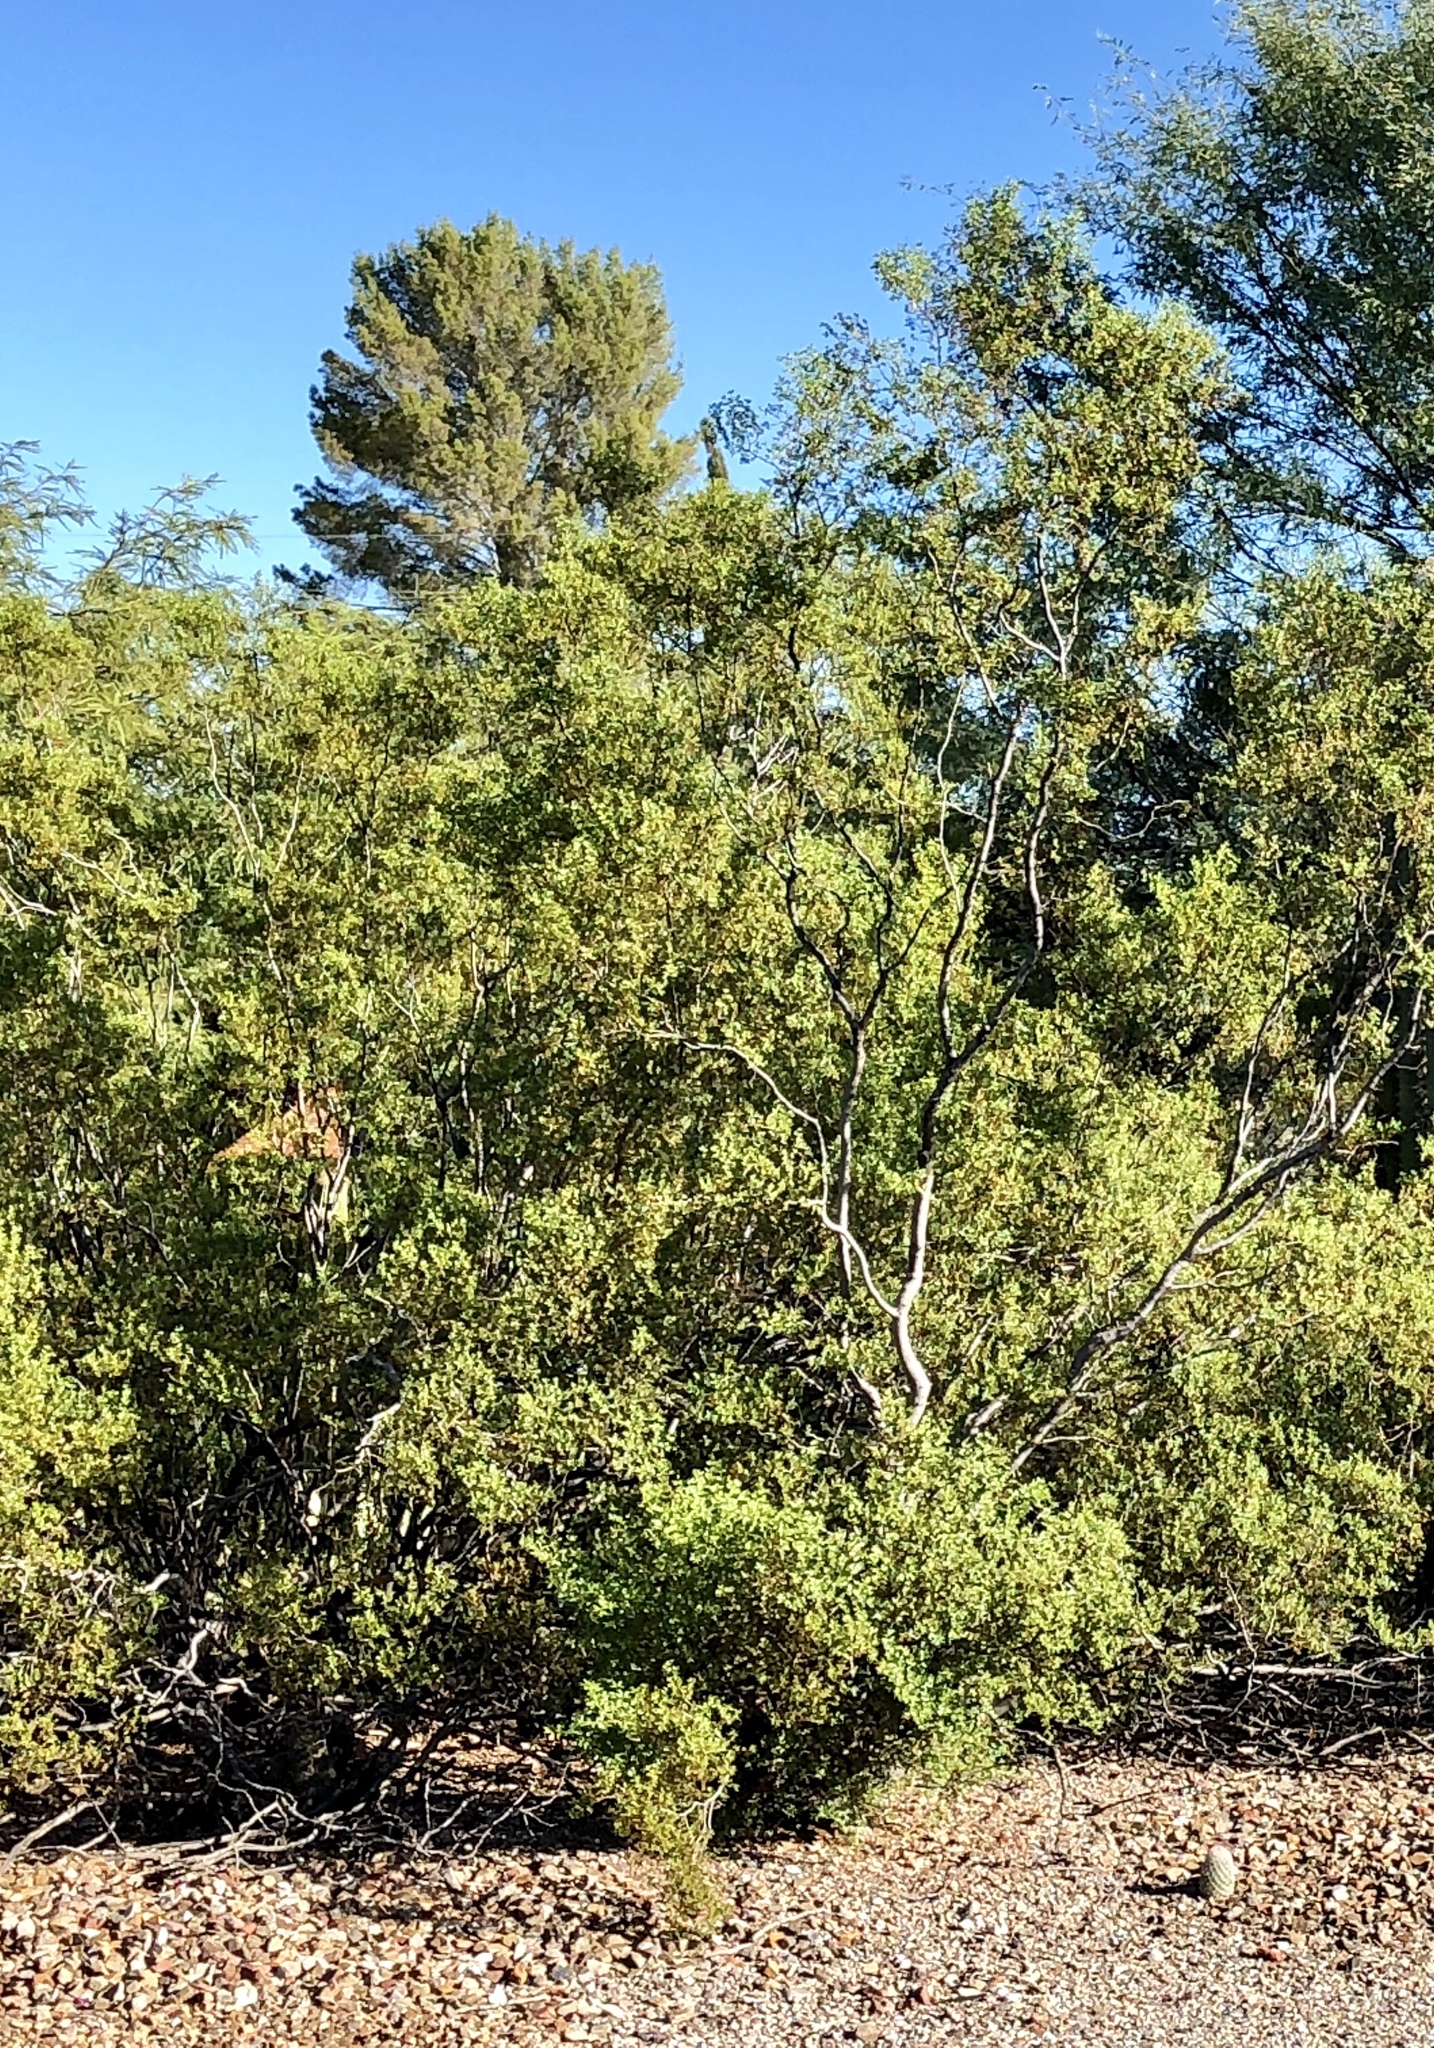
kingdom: Plantae
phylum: Tracheophyta
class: Magnoliopsida
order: Zygophyllales
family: Zygophyllaceae
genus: Larrea
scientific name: Larrea tridentata
